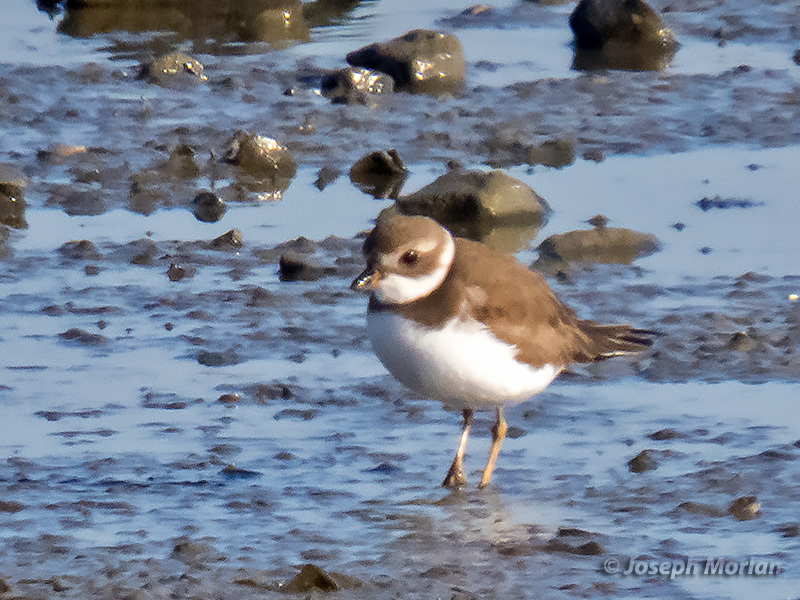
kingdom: Animalia
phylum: Chordata
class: Aves
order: Charadriiformes
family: Charadriidae
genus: Charadrius
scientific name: Charadrius semipalmatus
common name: Semipalmated plover
